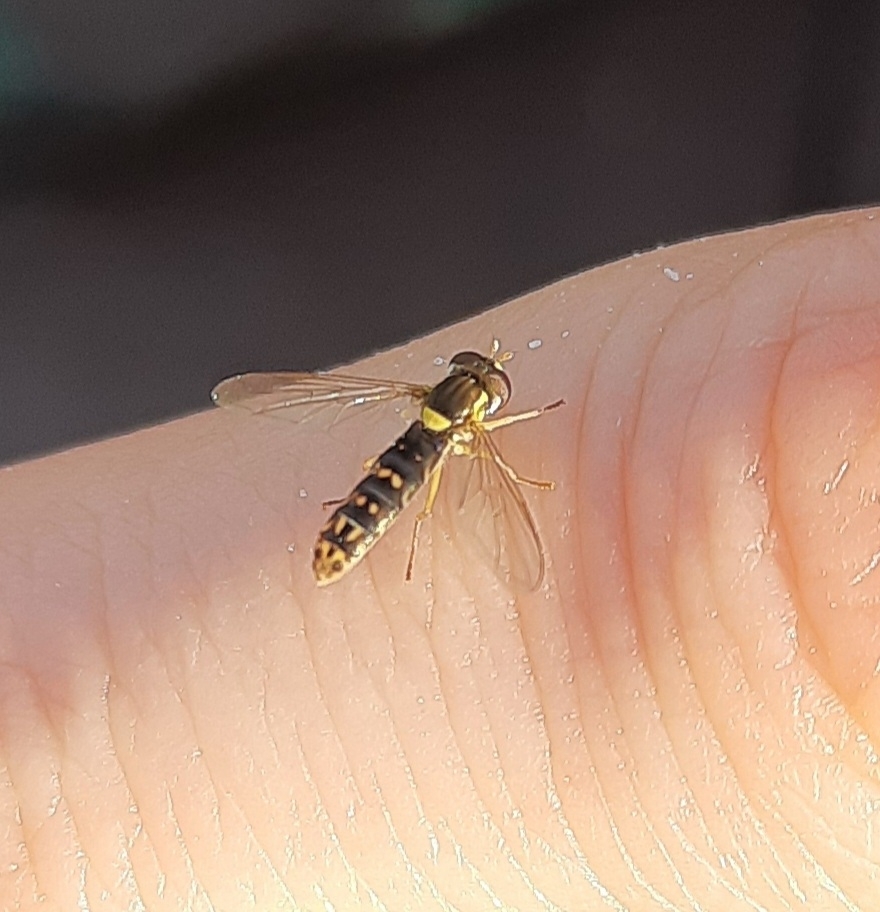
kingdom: Animalia
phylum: Arthropoda
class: Insecta
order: Diptera
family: Syrphidae
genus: Sphaerophoria
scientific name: Sphaerophoria
